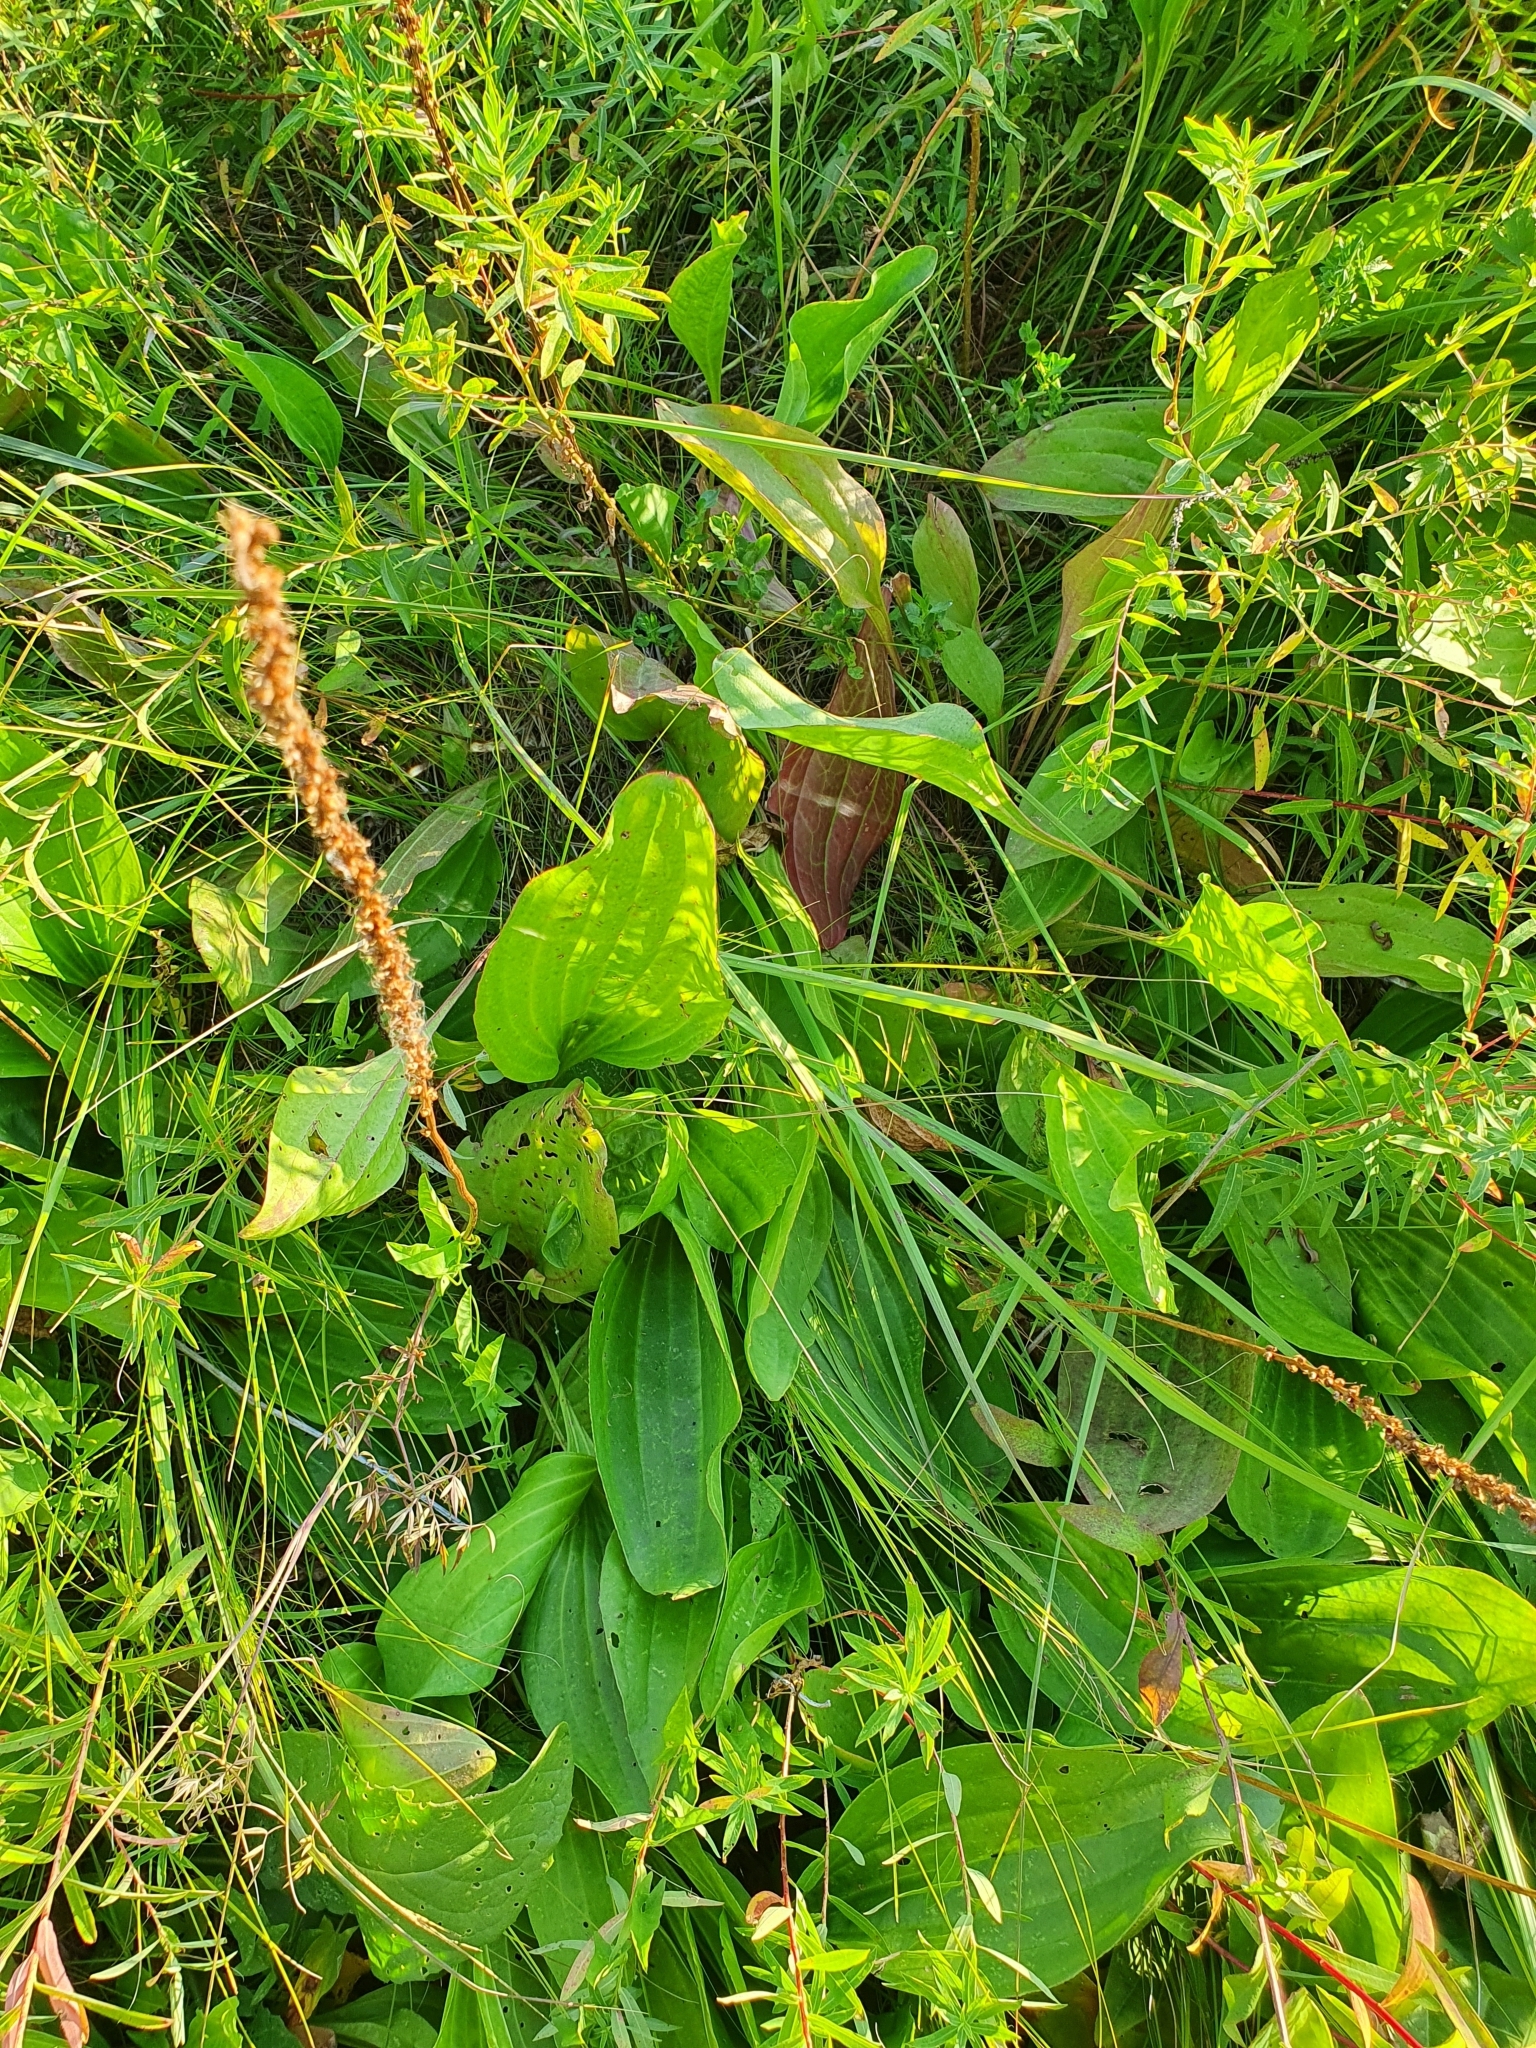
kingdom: Plantae
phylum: Tracheophyta
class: Magnoliopsida
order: Lamiales
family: Plantaginaceae
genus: Plantago
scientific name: Plantago cornuti
